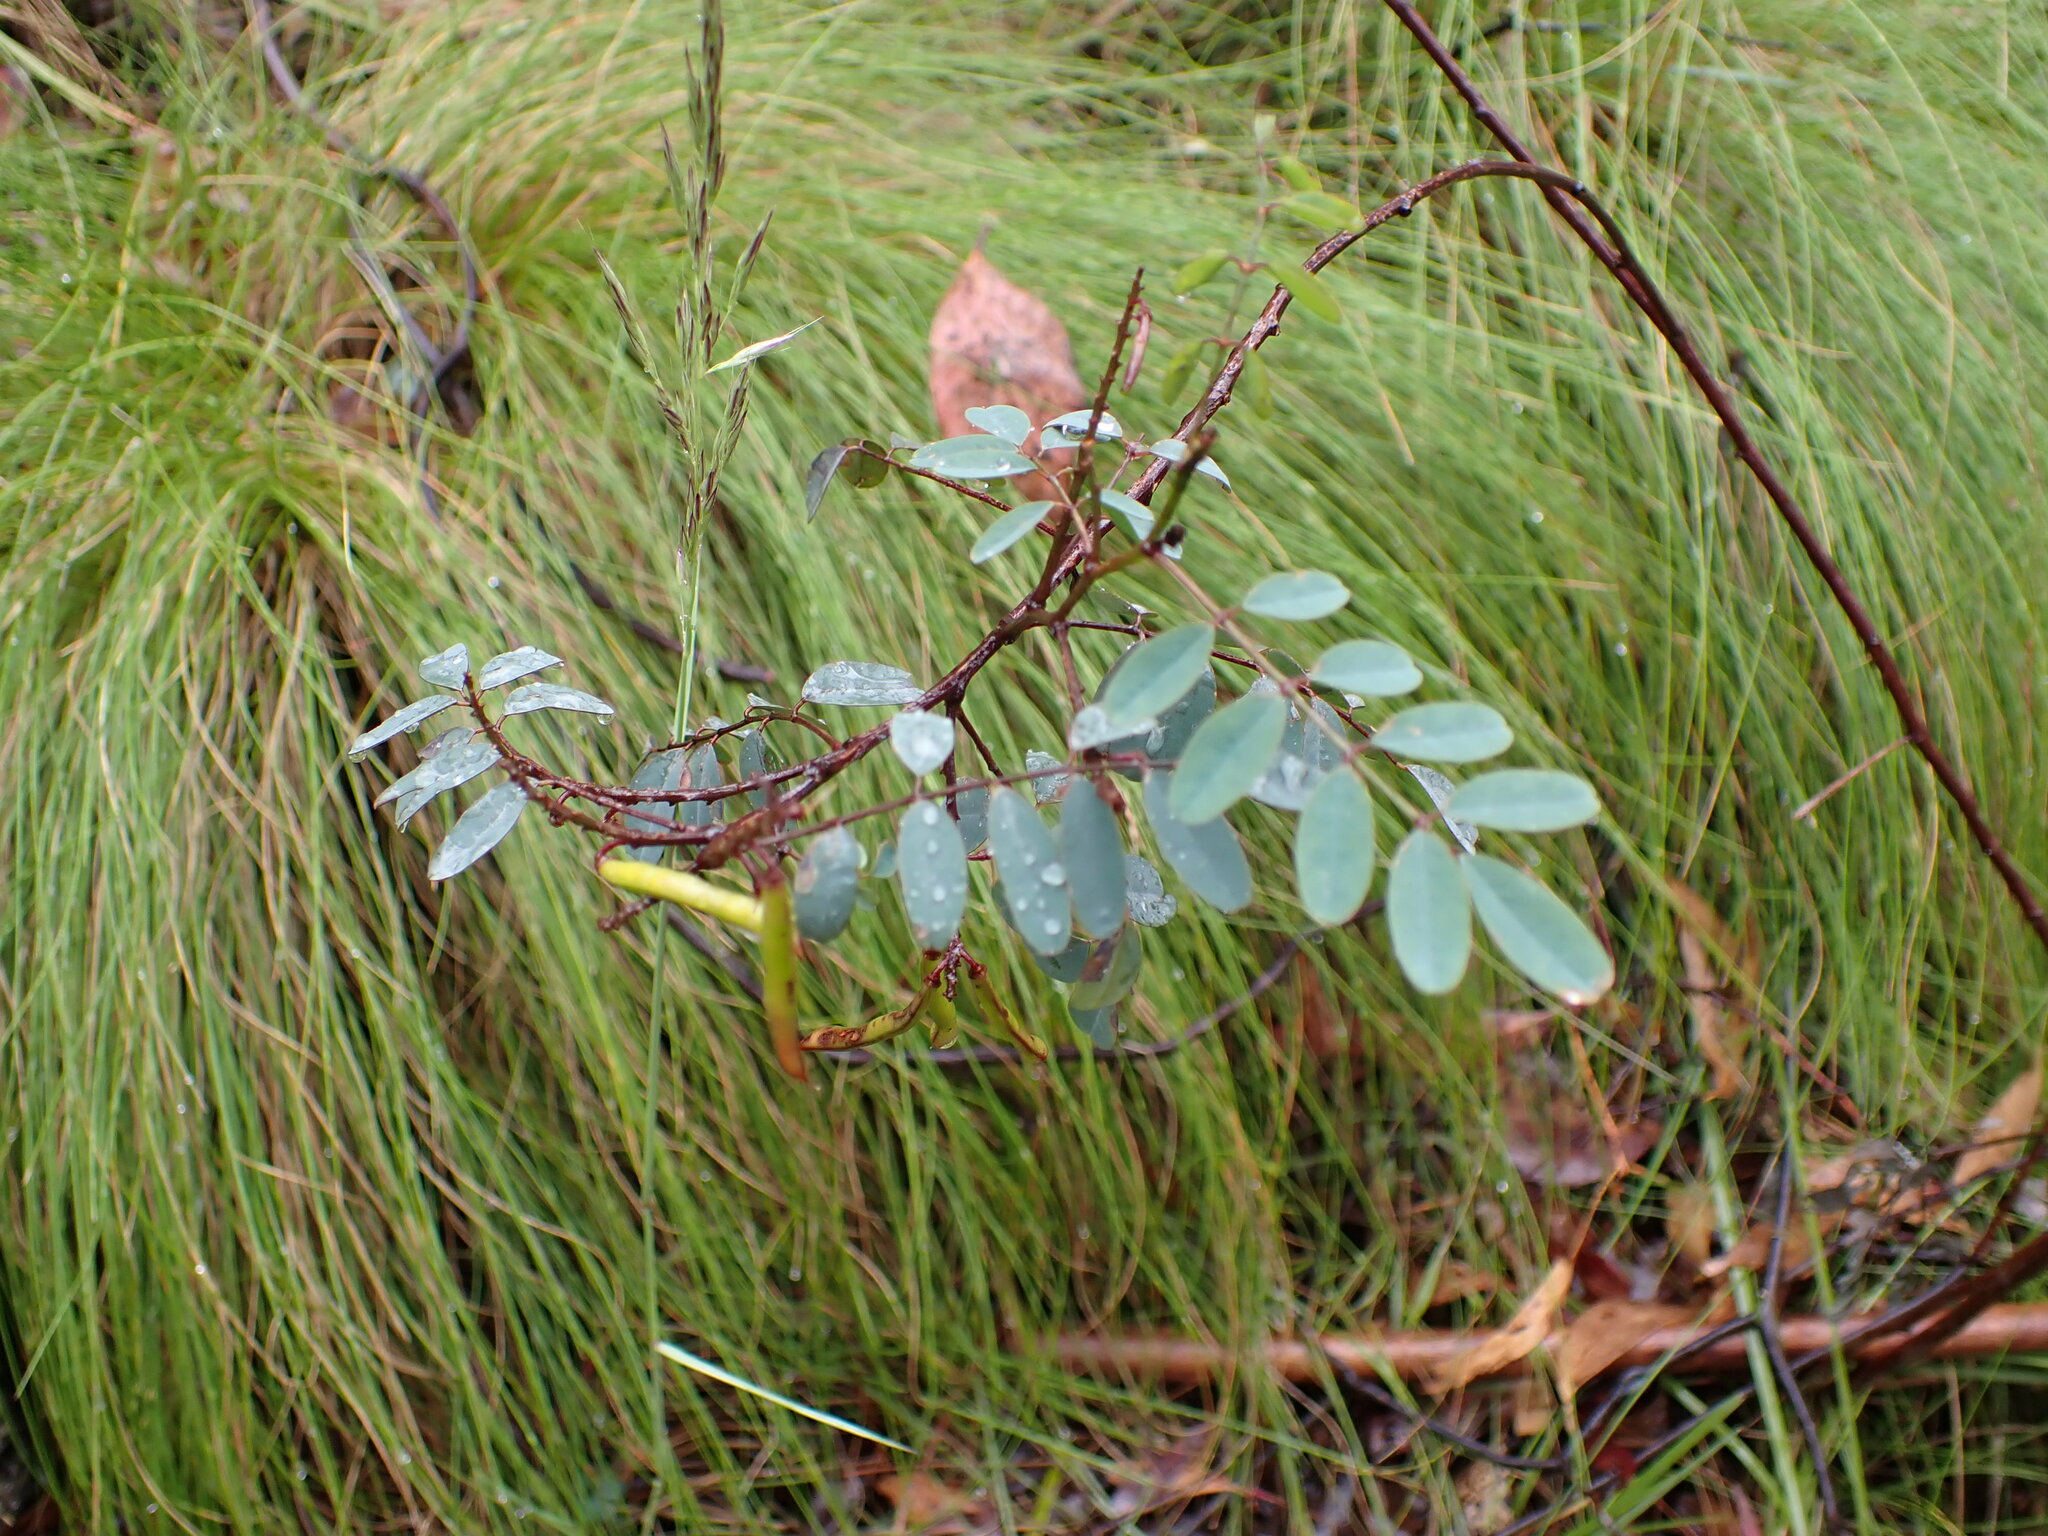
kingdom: Plantae
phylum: Tracheophyta
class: Magnoliopsida
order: Fabales
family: Fabaceae
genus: Indigofera
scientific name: Indigofera australis
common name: Australian indigo
